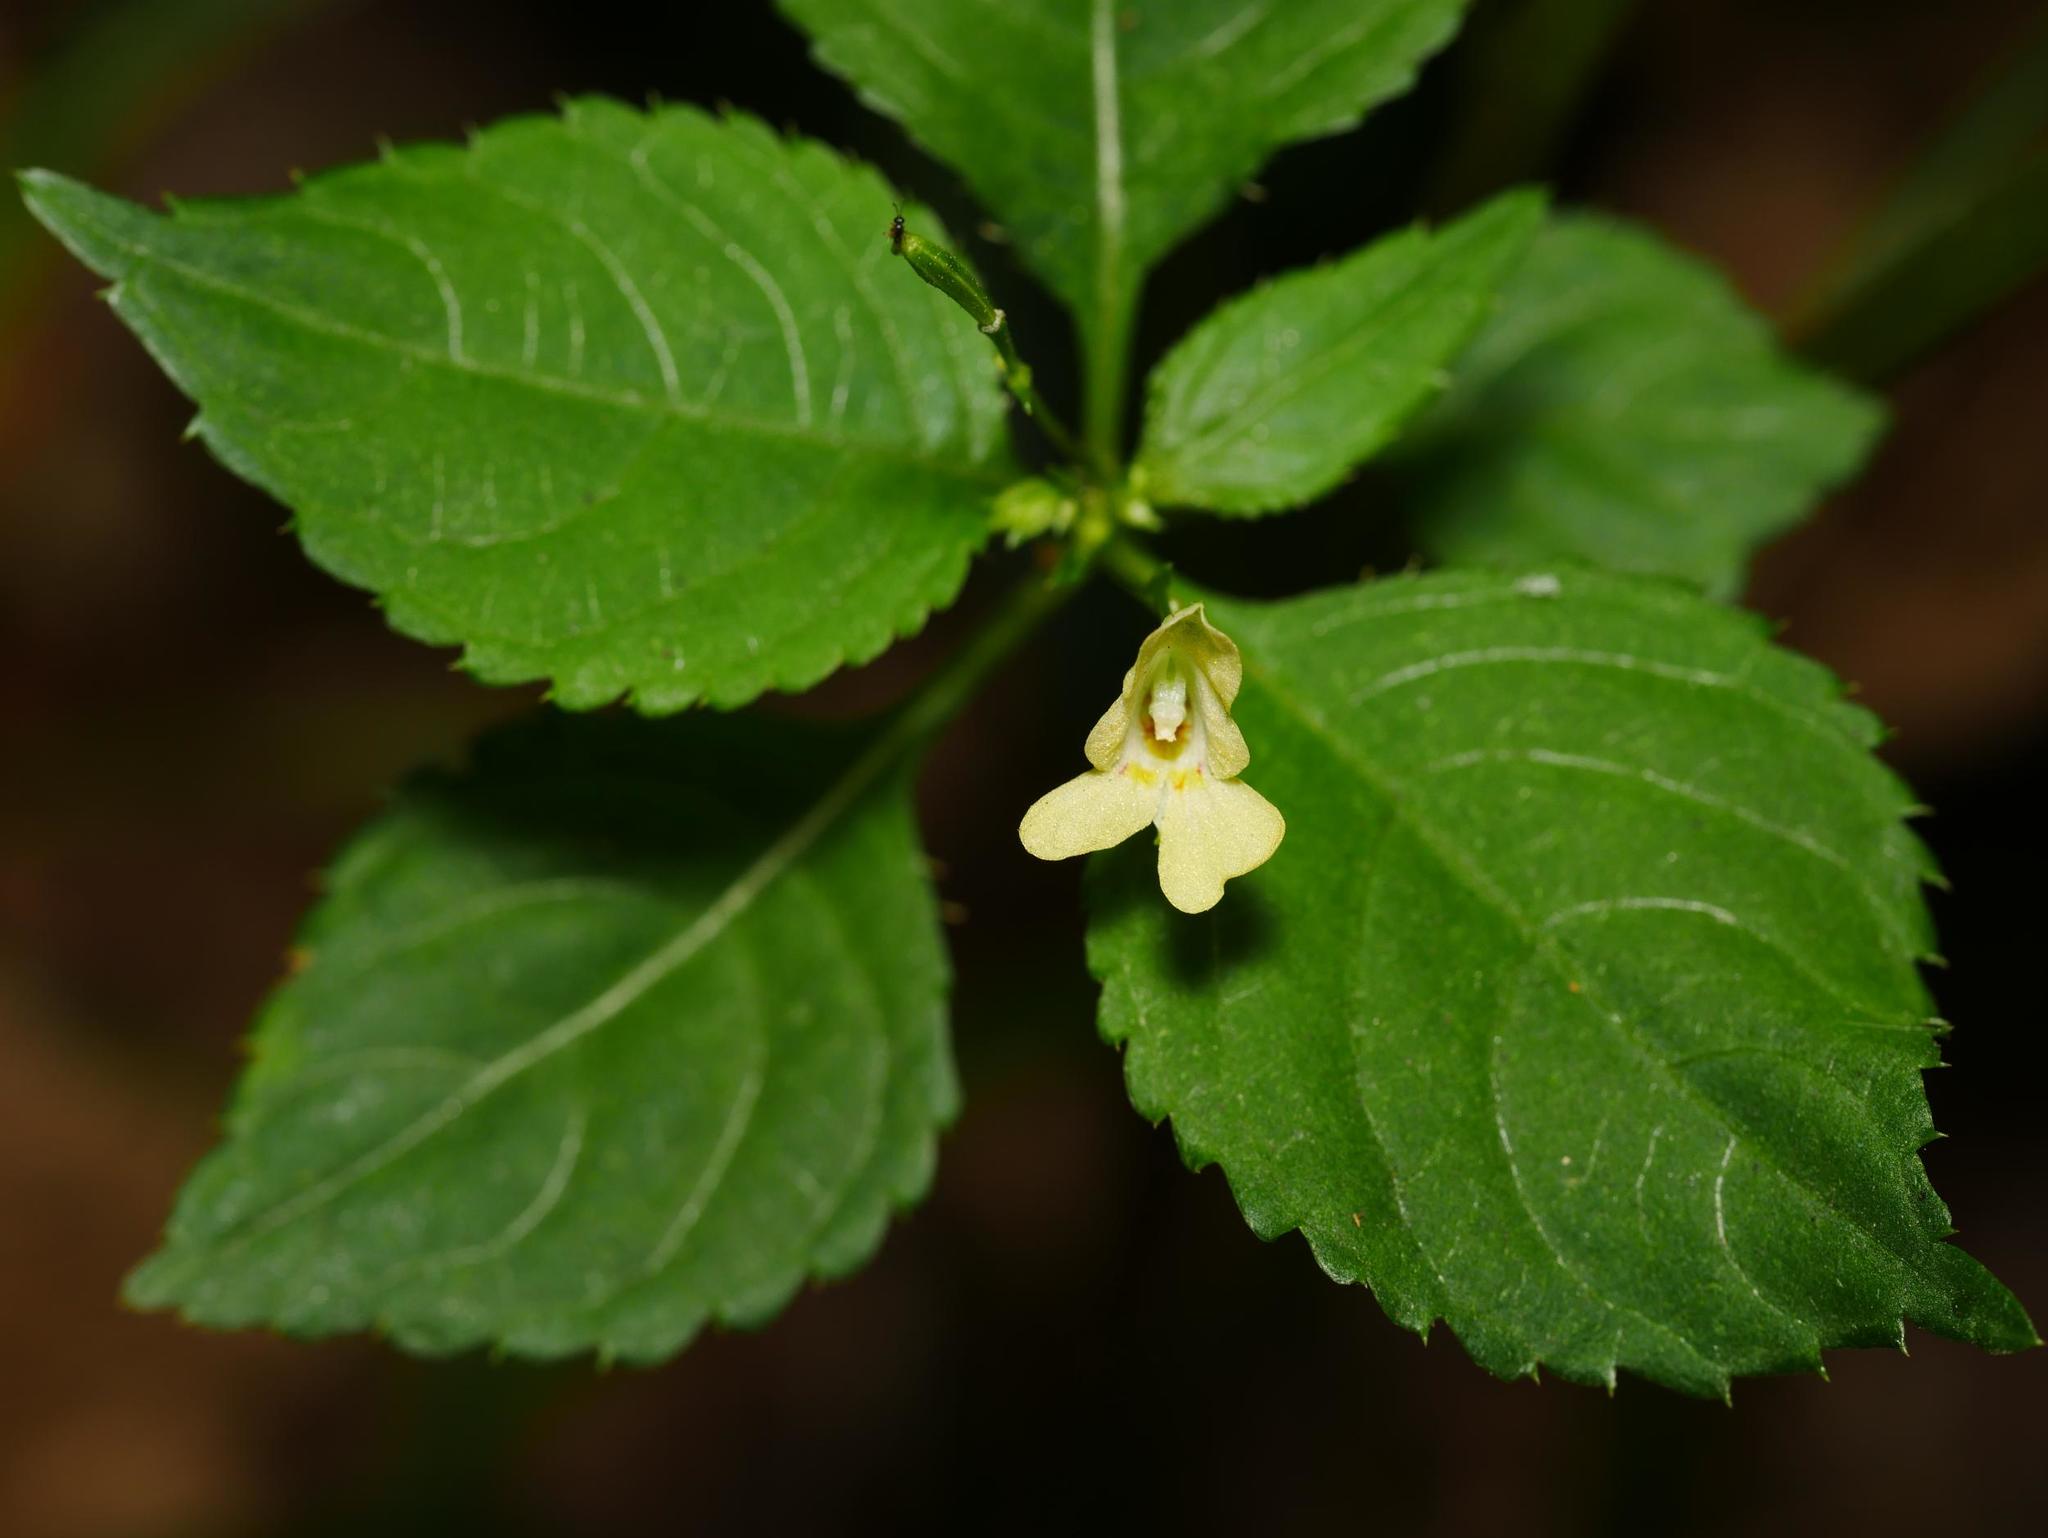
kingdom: Plantae
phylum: Tracheophyta
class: Magnoliopsida
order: Ericales
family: Balsaminaceae
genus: Impatiens
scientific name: Impatiens parviflora
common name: Small balsam
